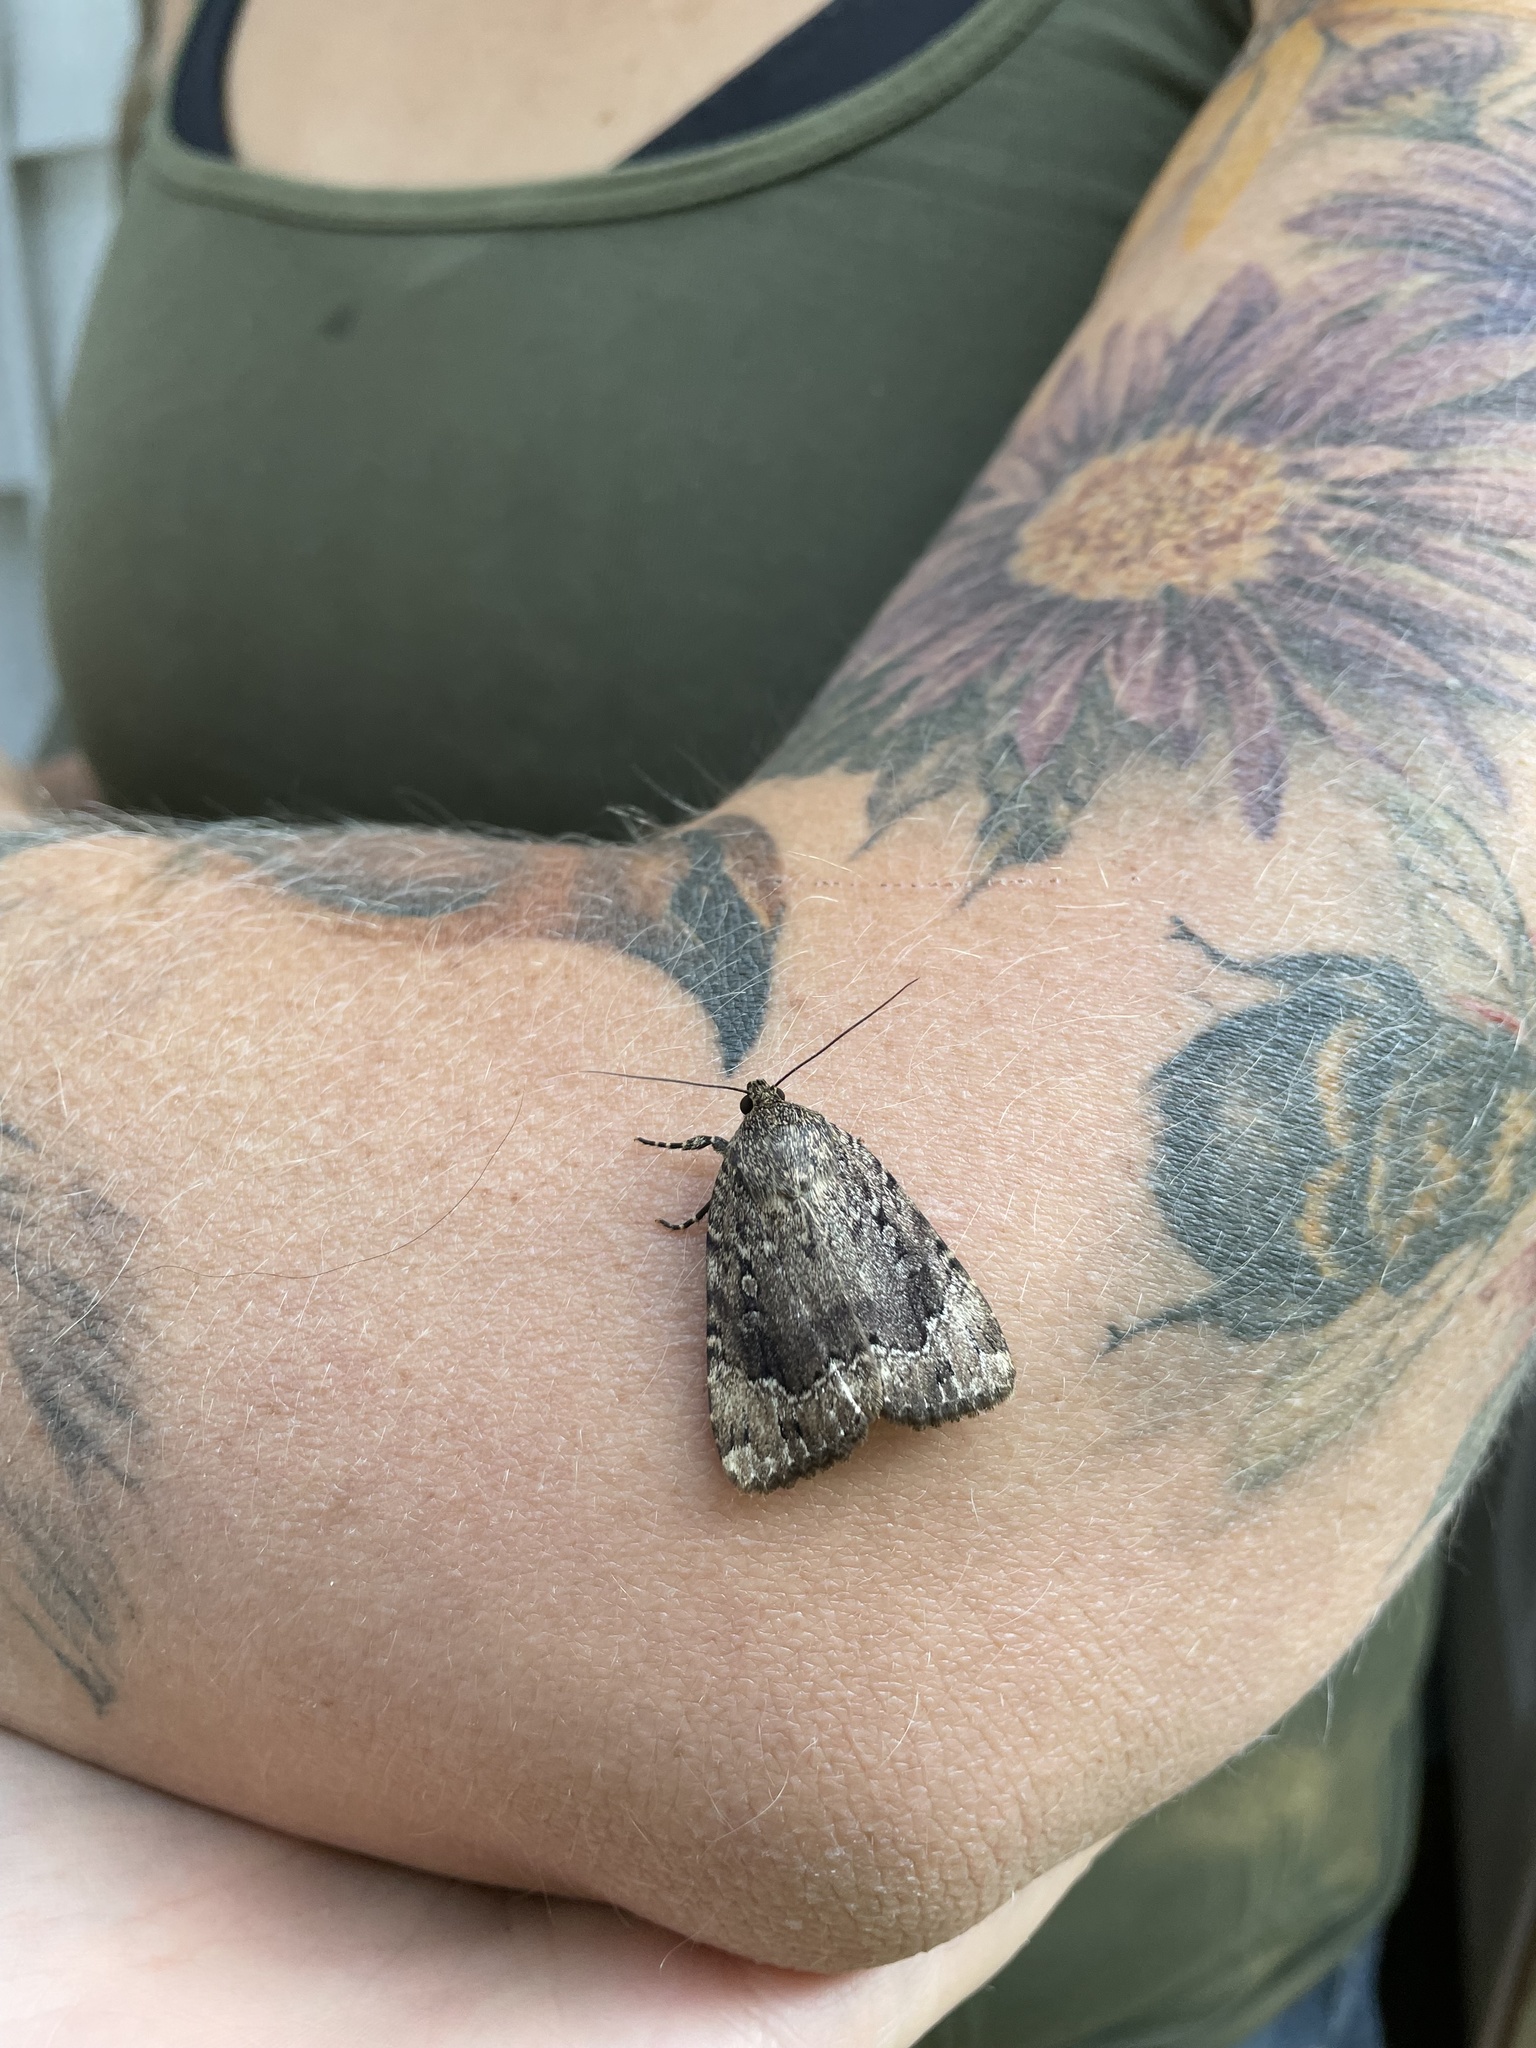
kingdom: Animalia
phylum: Arthropoda
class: Insecta
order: Lepidoptera
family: Noctuidae
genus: Amphipyra
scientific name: Amphipyra pyramidoides
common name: American copper underwing
